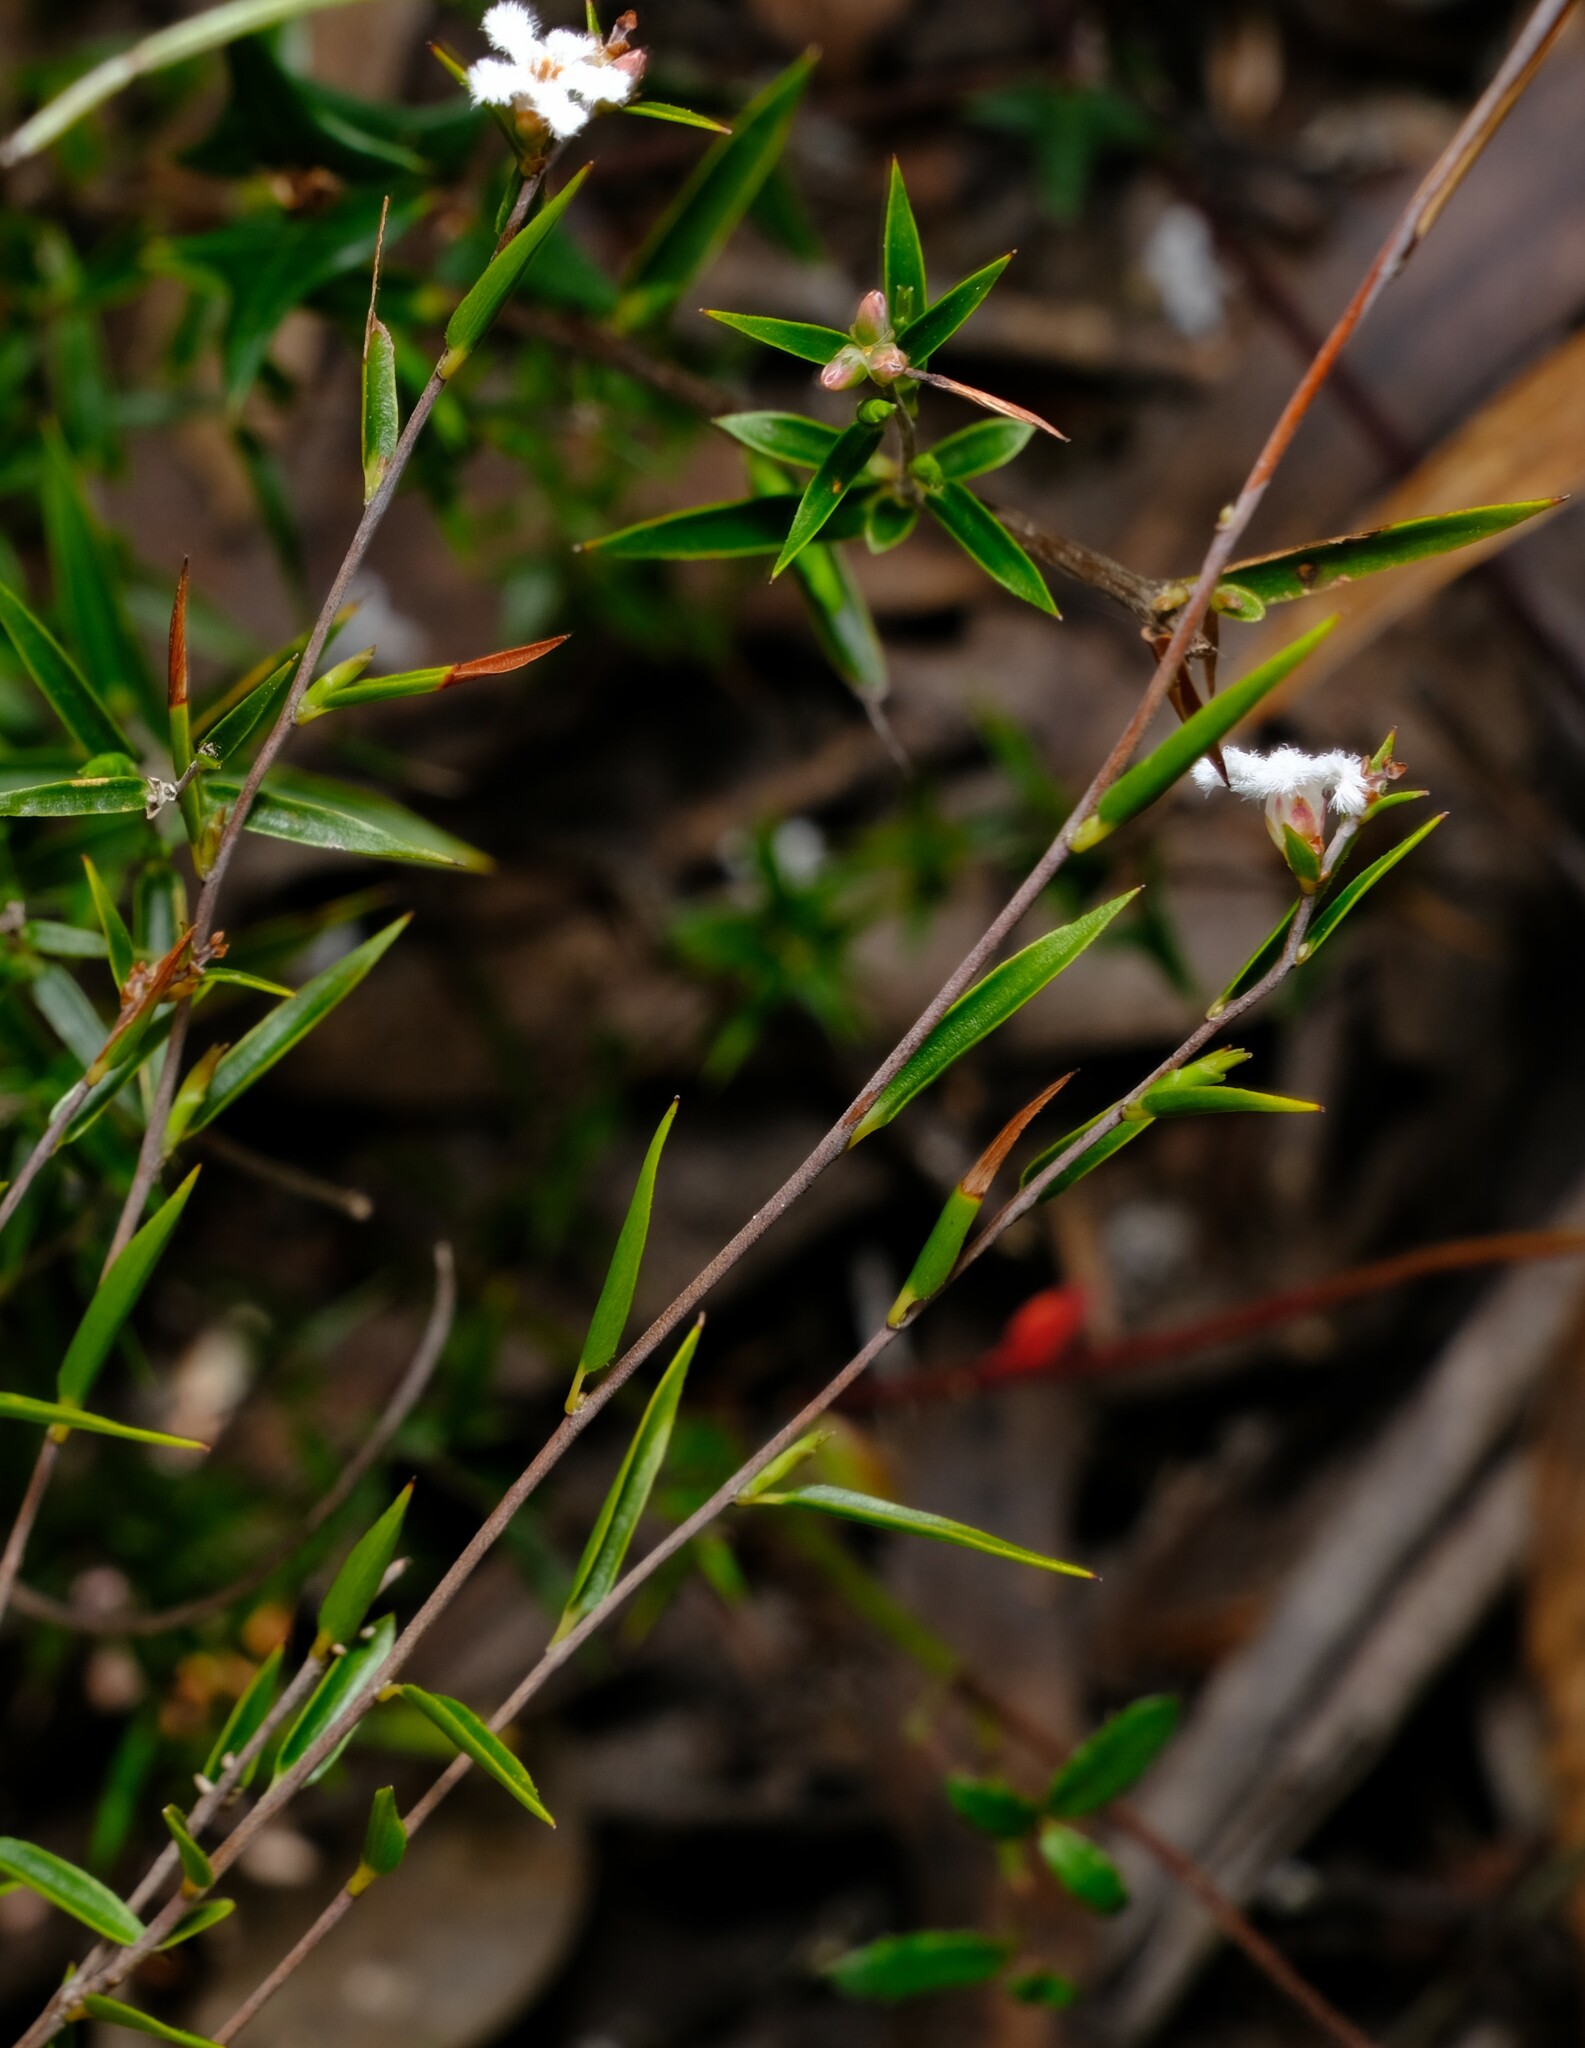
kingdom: Plantae
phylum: Tracheophyta
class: Magnoliopsida
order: Ericales
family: Ericaceae
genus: Leucopogon
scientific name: Leucopogon virgatus
